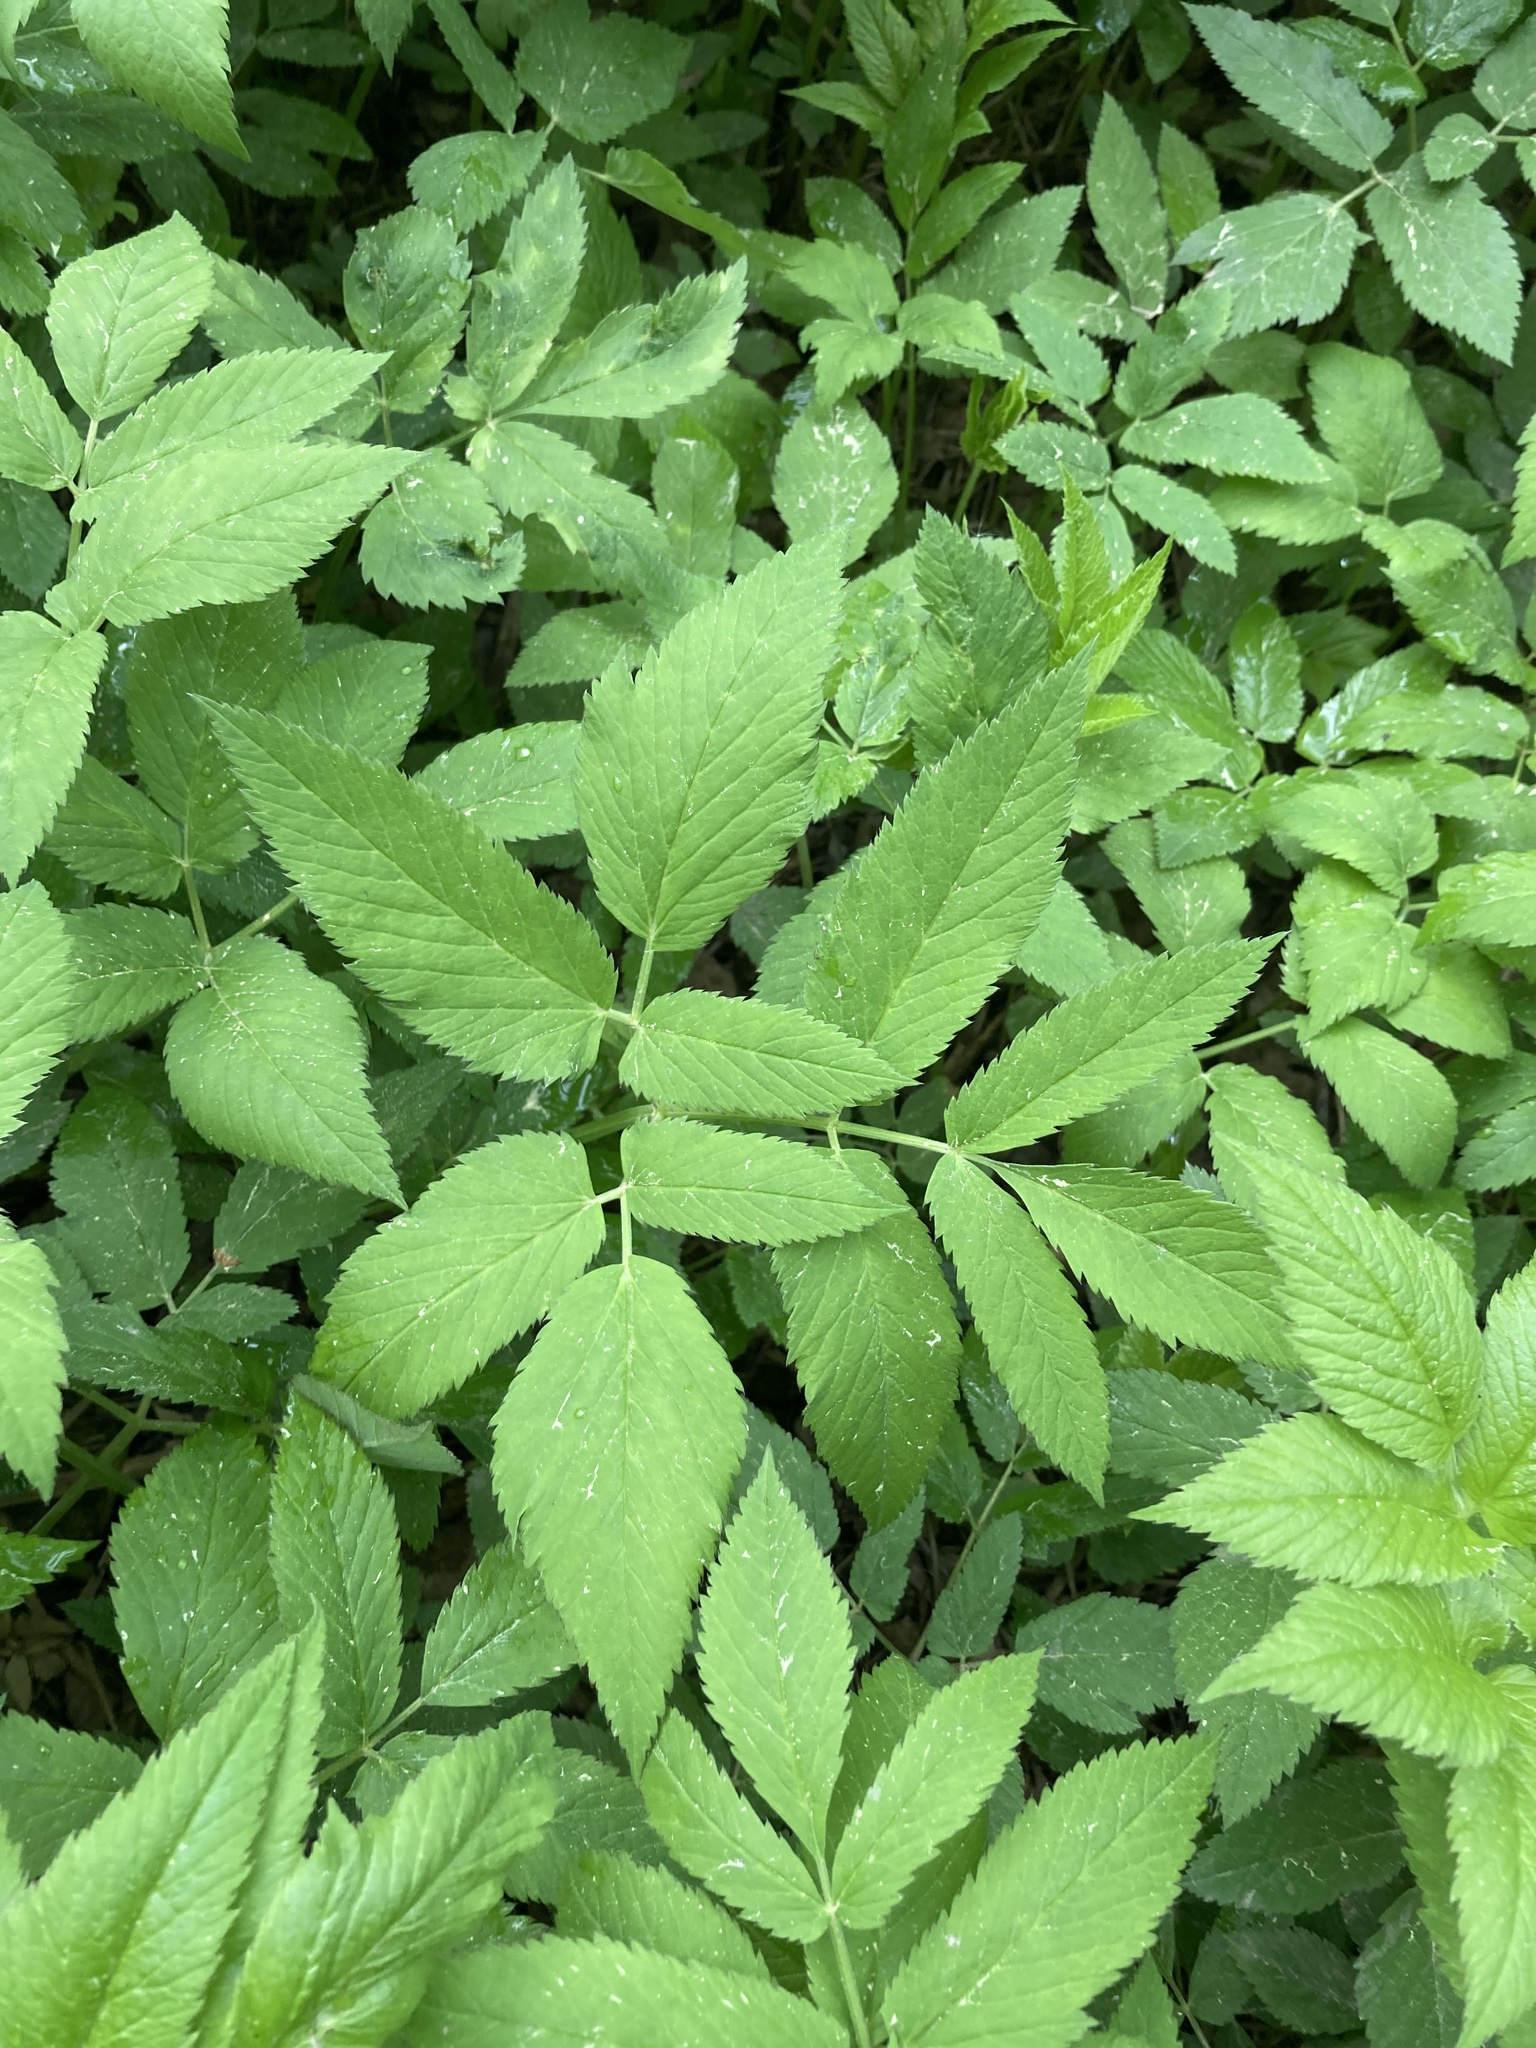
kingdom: Plantae
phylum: Tracheophyta
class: Magnoliopsida
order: Apiales
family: Apiaceae
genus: Aegopodium
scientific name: Aegopodium podagraria
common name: Ground-elder
